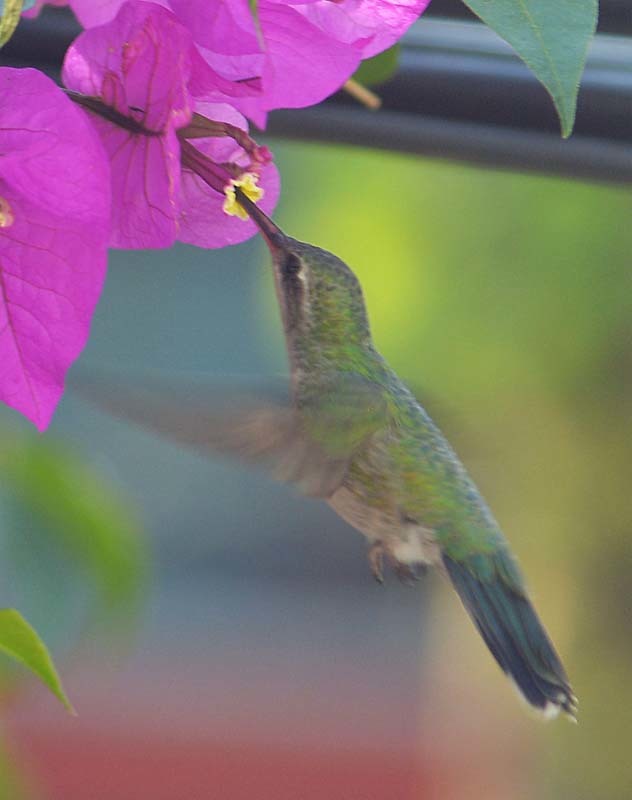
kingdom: Animalia
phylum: Chordata
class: Aves
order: Apodiformes
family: Trochilidae
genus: Cynanthus
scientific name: Cynanthus latirostris
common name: Broad-billed hummingbird
